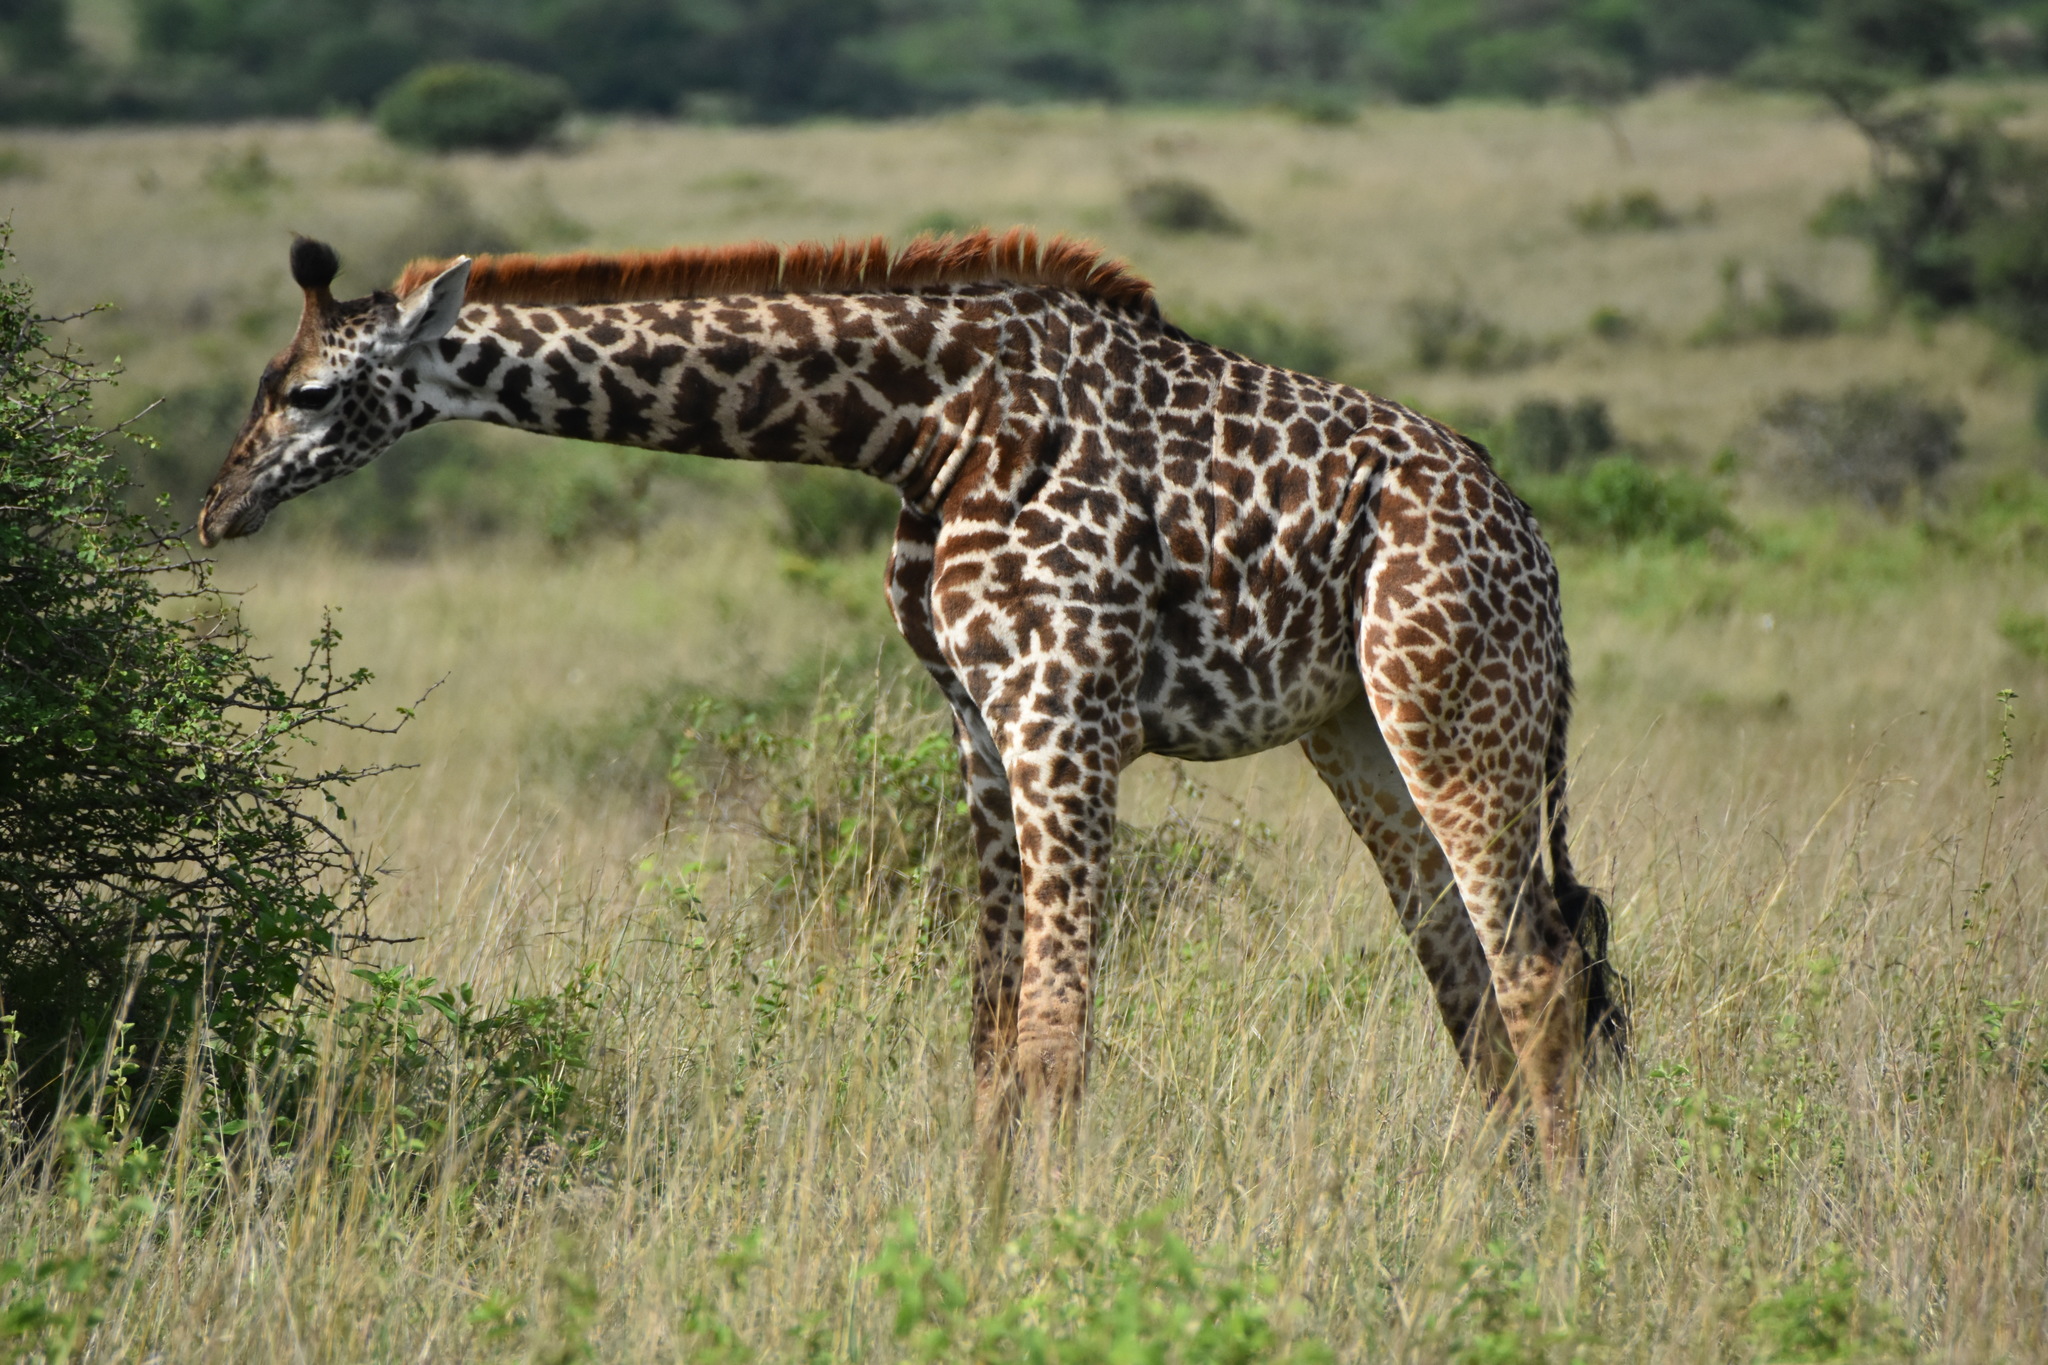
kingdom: Animalia
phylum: Chordata
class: Mammalia
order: Artiodactyla
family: Giraffidae
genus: Giraffa
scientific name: Giraffa tippelskirchi
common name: Masai giraffe
